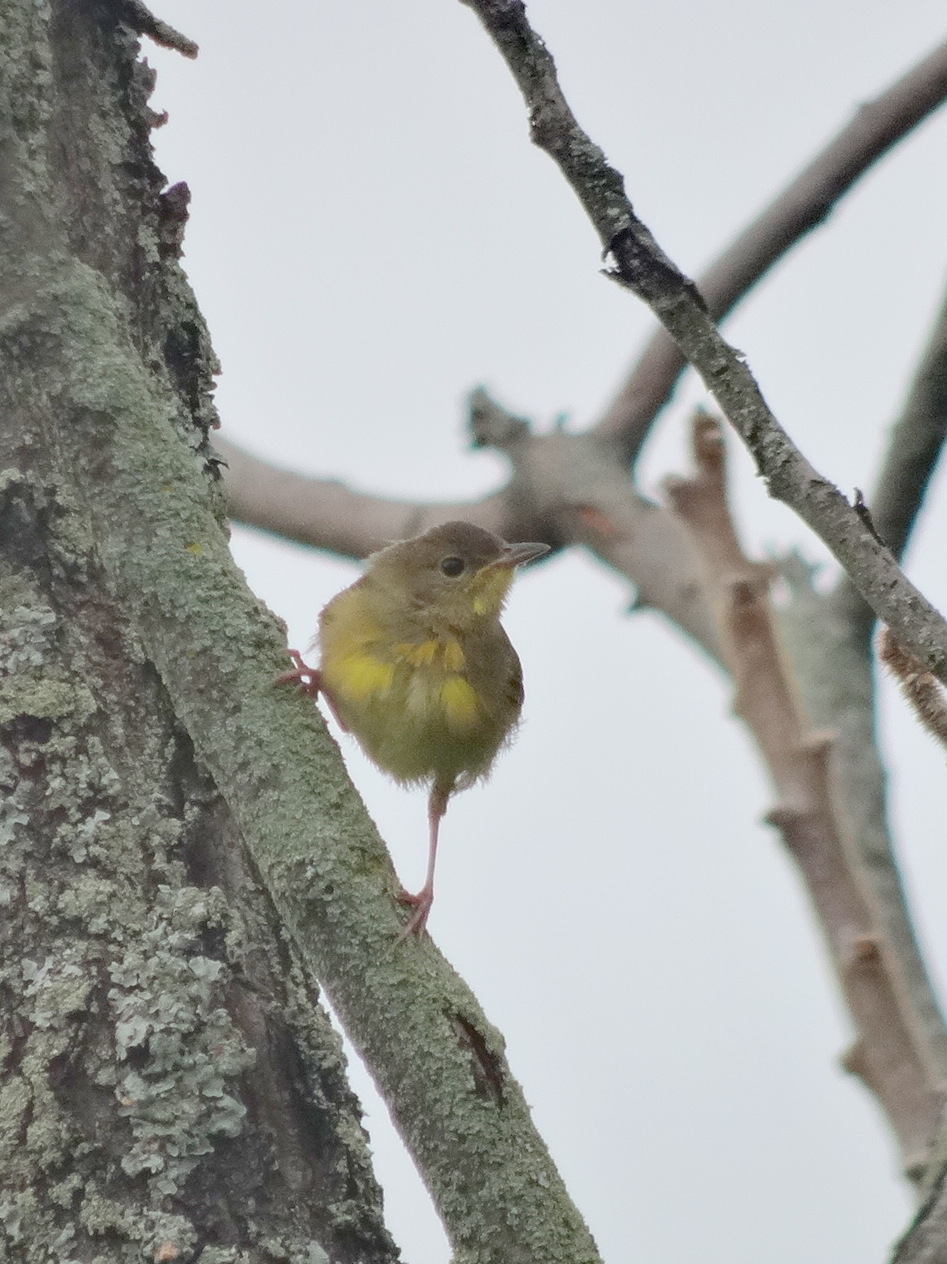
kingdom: Animalia
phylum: Chordata
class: Aves
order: Passeriformes
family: Parulidae
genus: Geothlypis
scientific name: Geothlypis trichas
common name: Common yellowthroat
